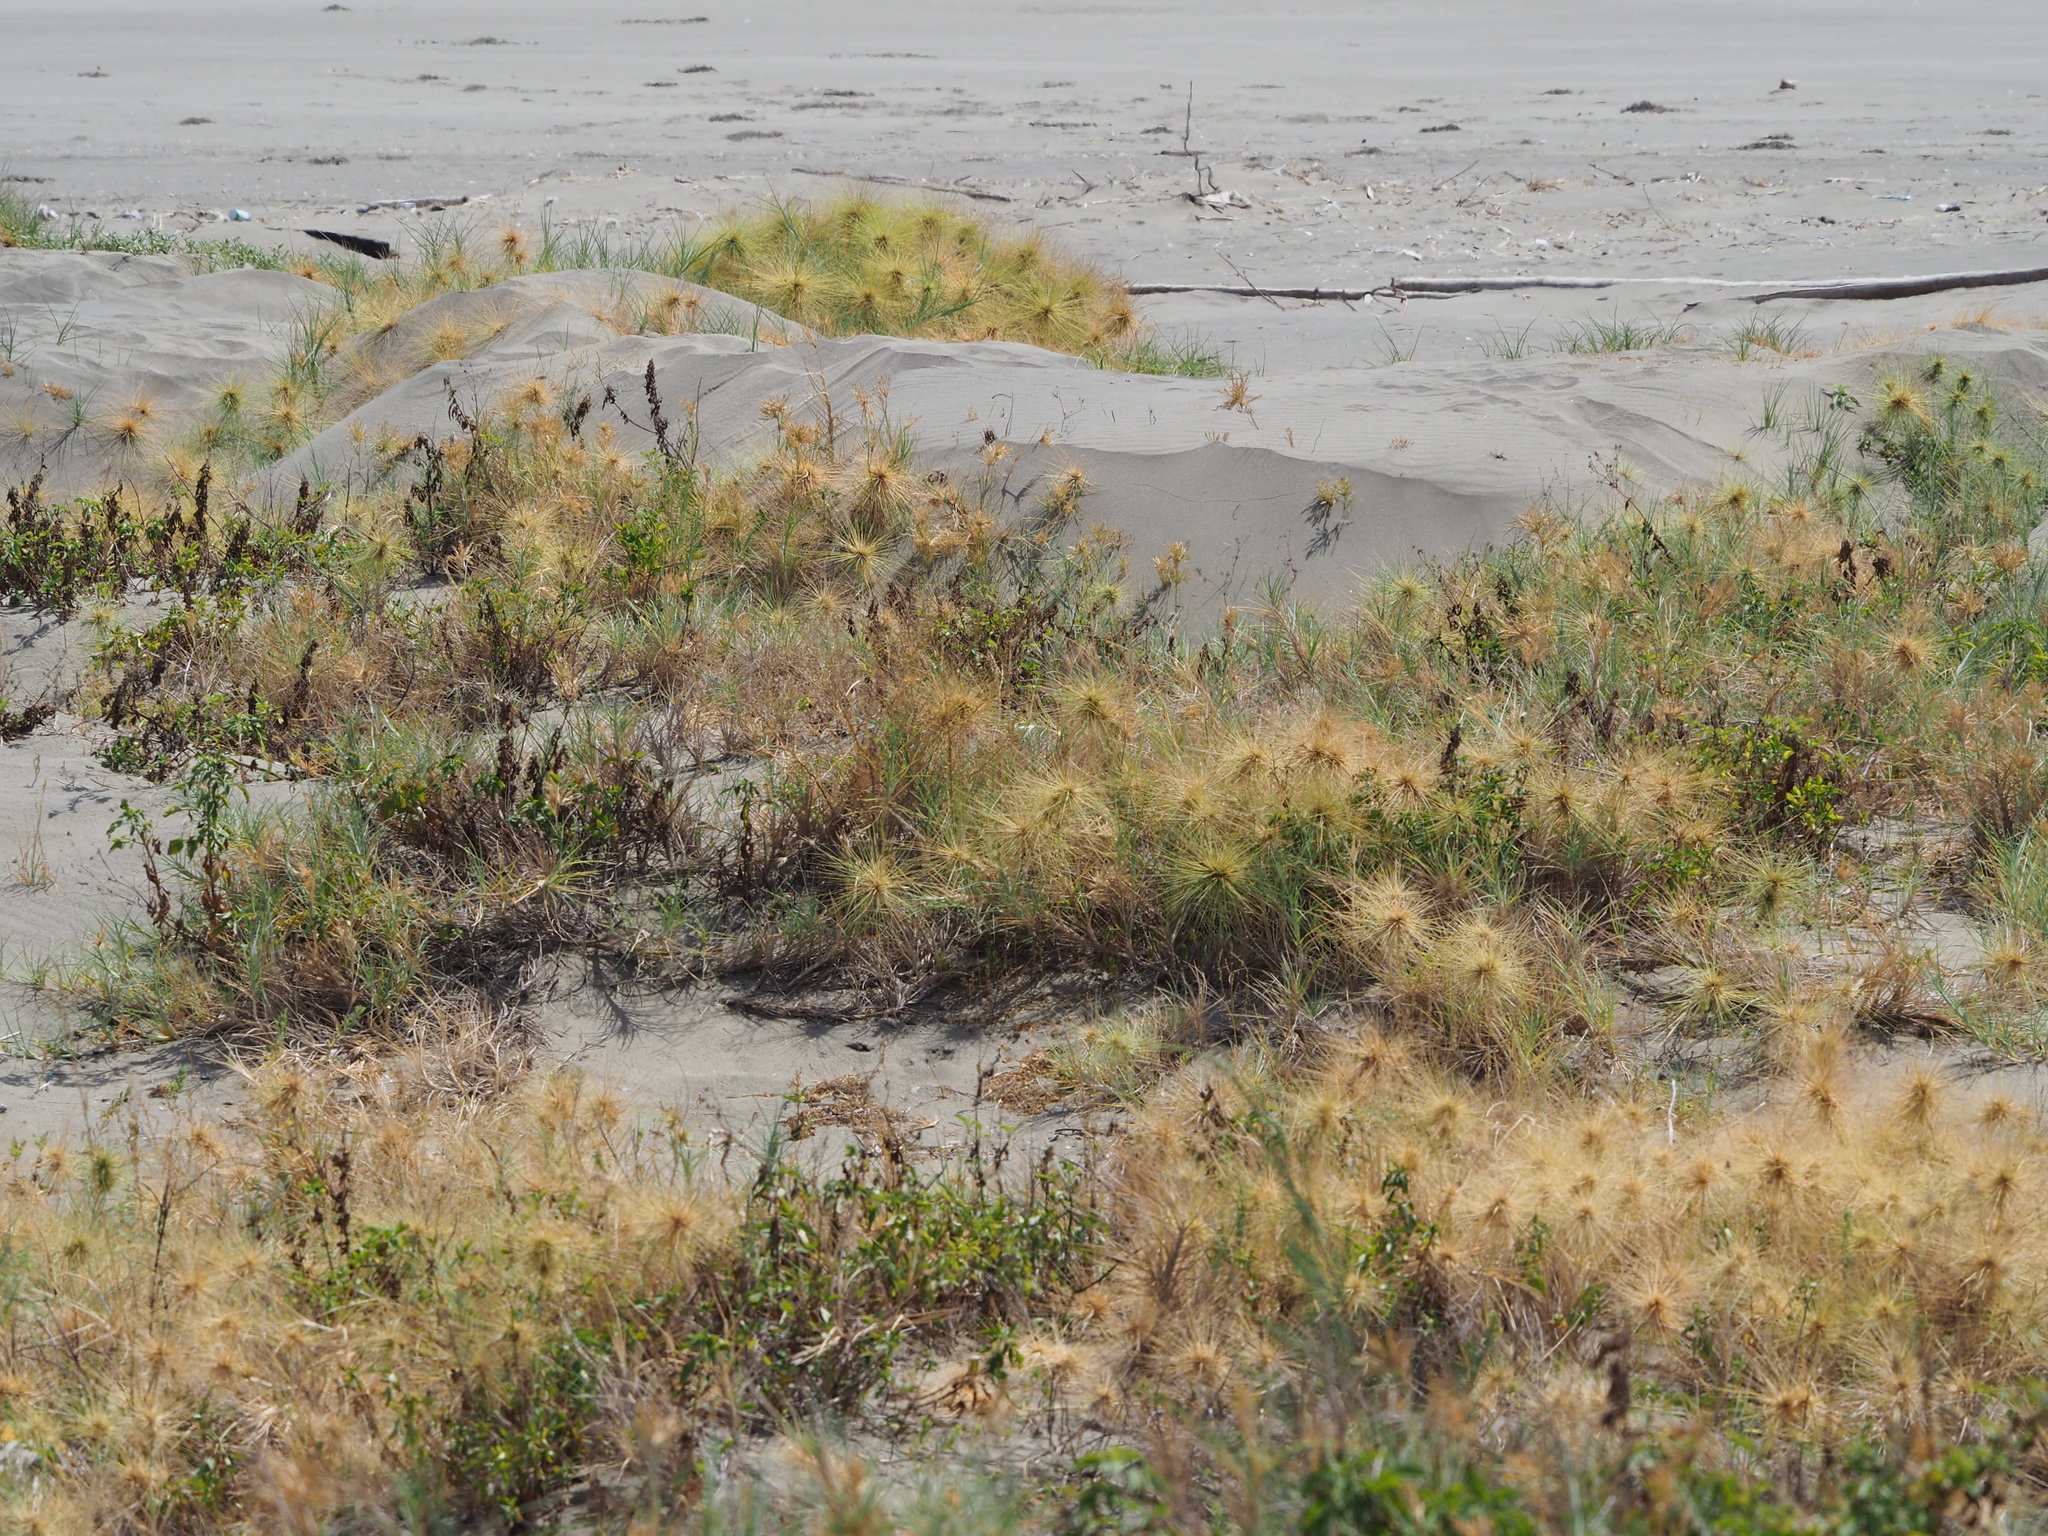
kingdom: Plantae
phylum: Tracheophyta
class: Liliopsida
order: Poales
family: Poaceae
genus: Spinifex
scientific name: Spinifex littoreus
